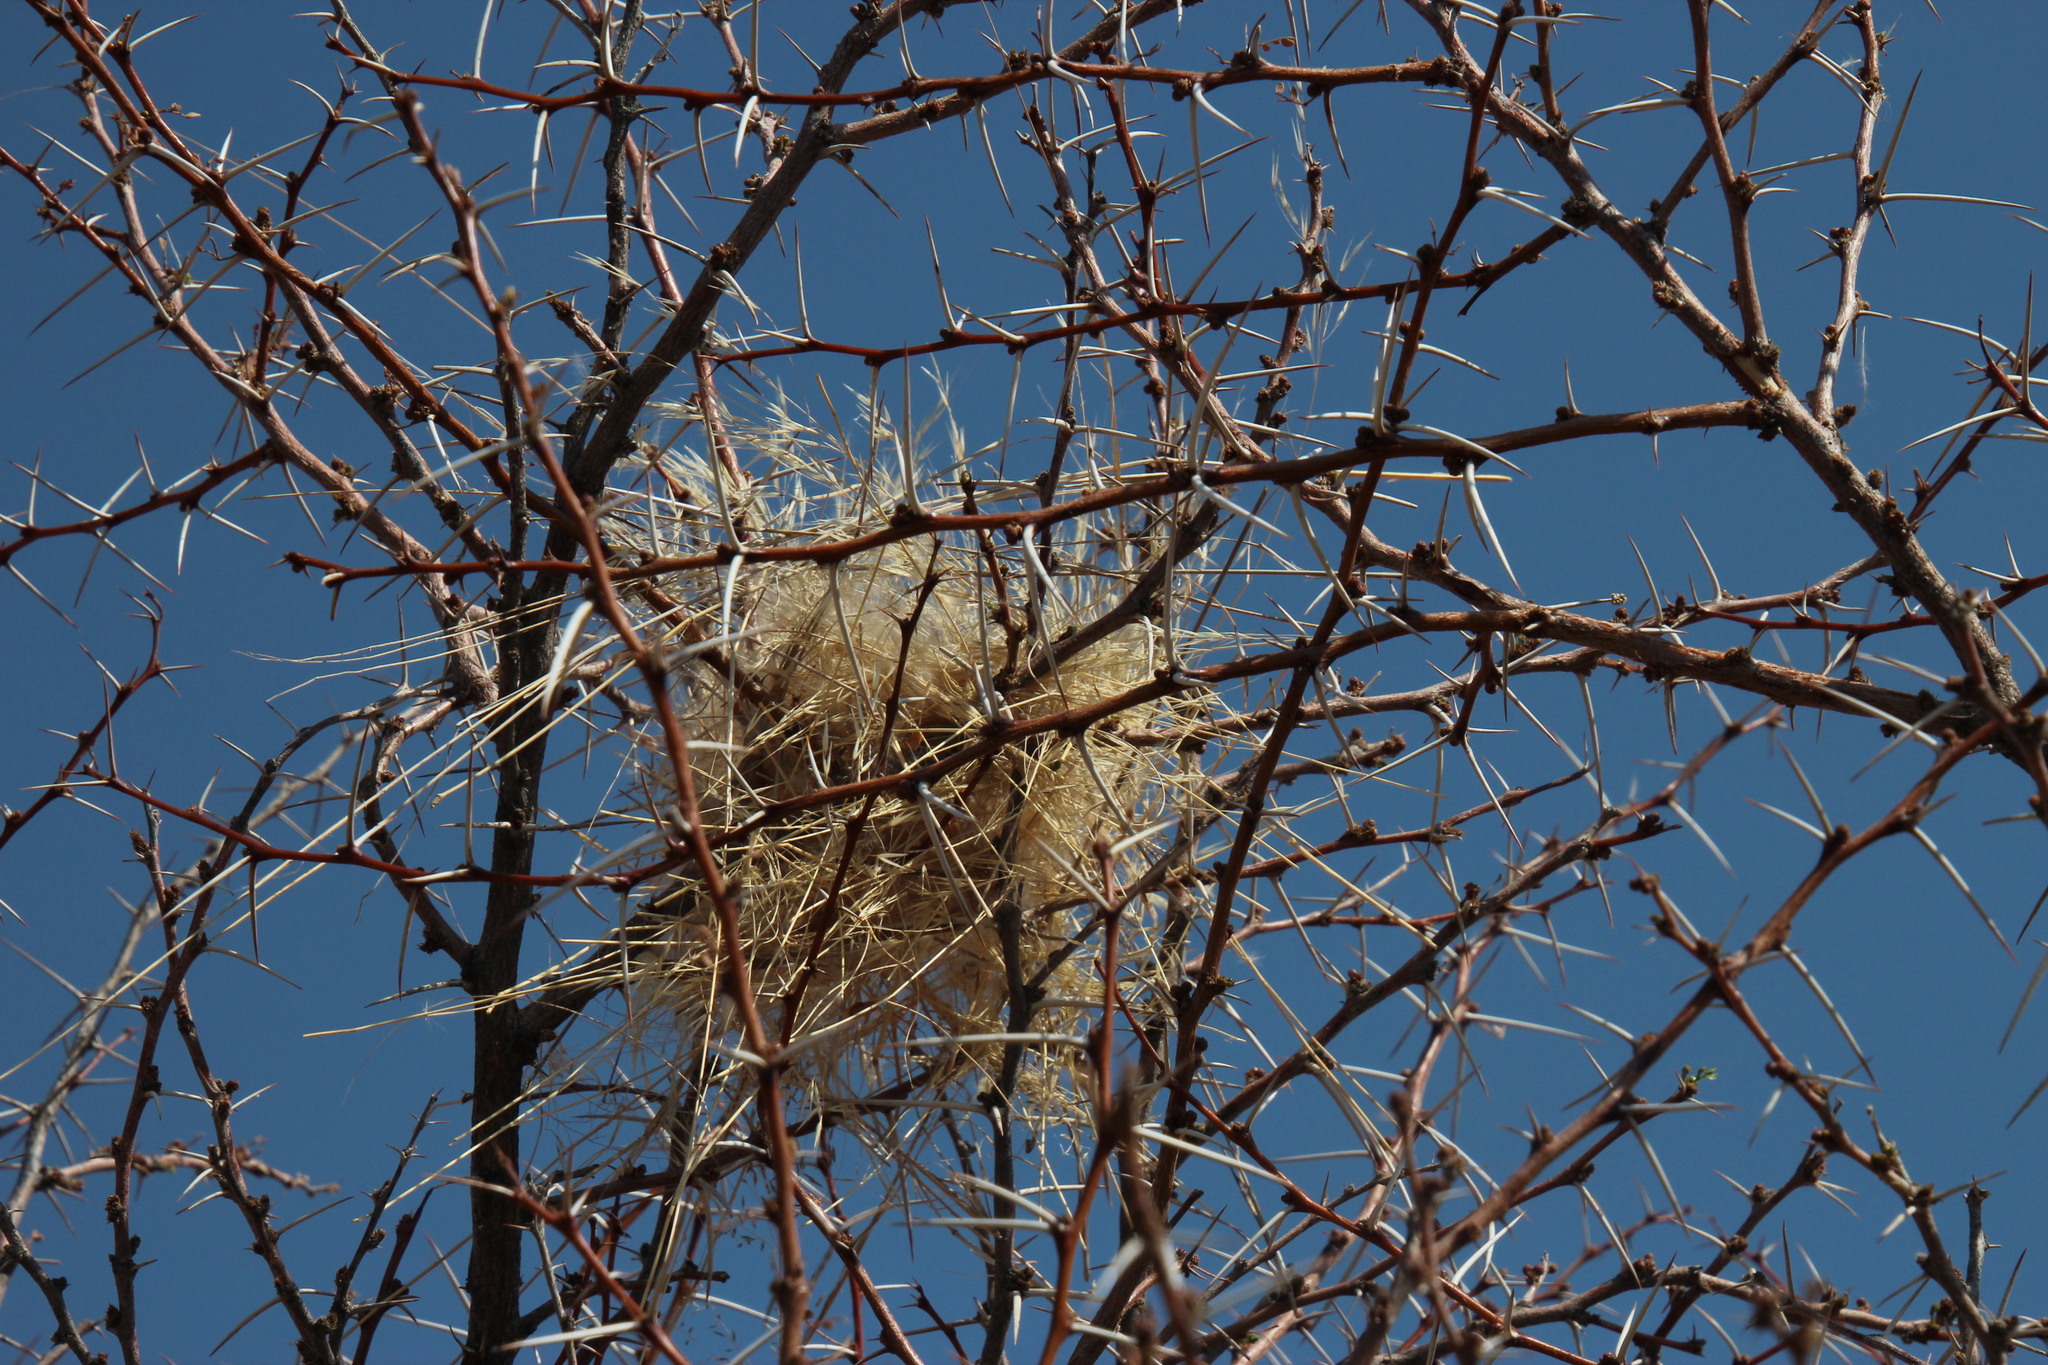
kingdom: Plantae
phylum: Tracheophyta
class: Magnoliopsida
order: Fabales
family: Fabaceae
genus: Vachellia
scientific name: Vachellia nebrownii
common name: Water acacia
